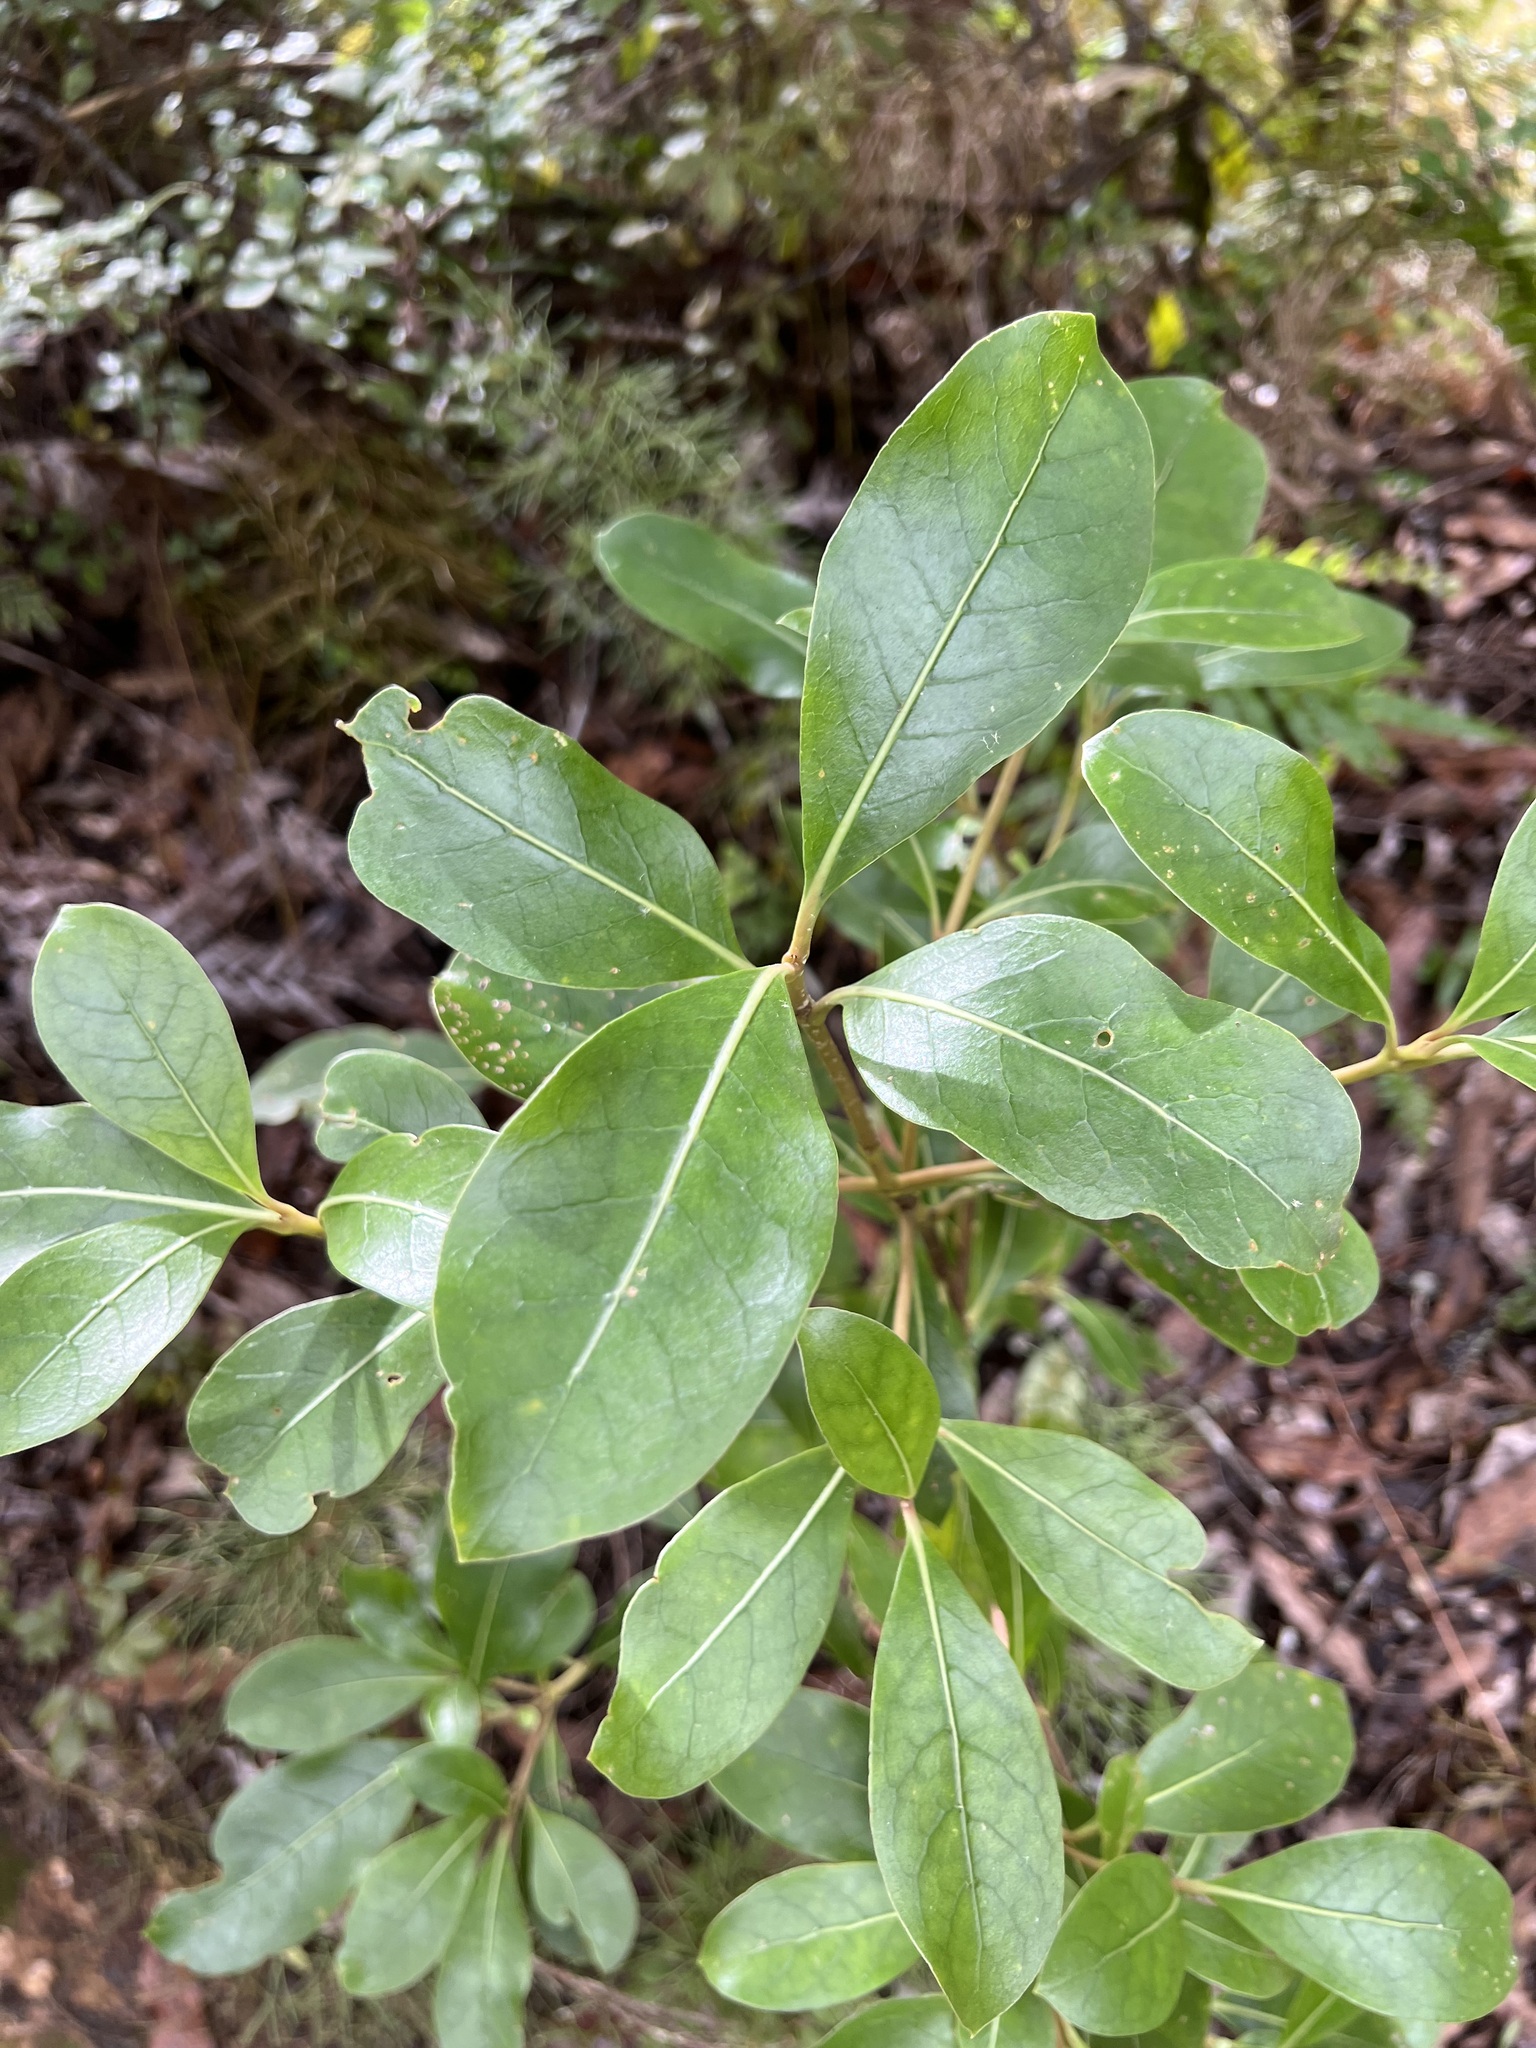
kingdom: Plantae
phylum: Tracheophyta
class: Magnoliopsida
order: Gentianales
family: Rubiaceae
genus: Coprosma
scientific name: Coprosma lucida
